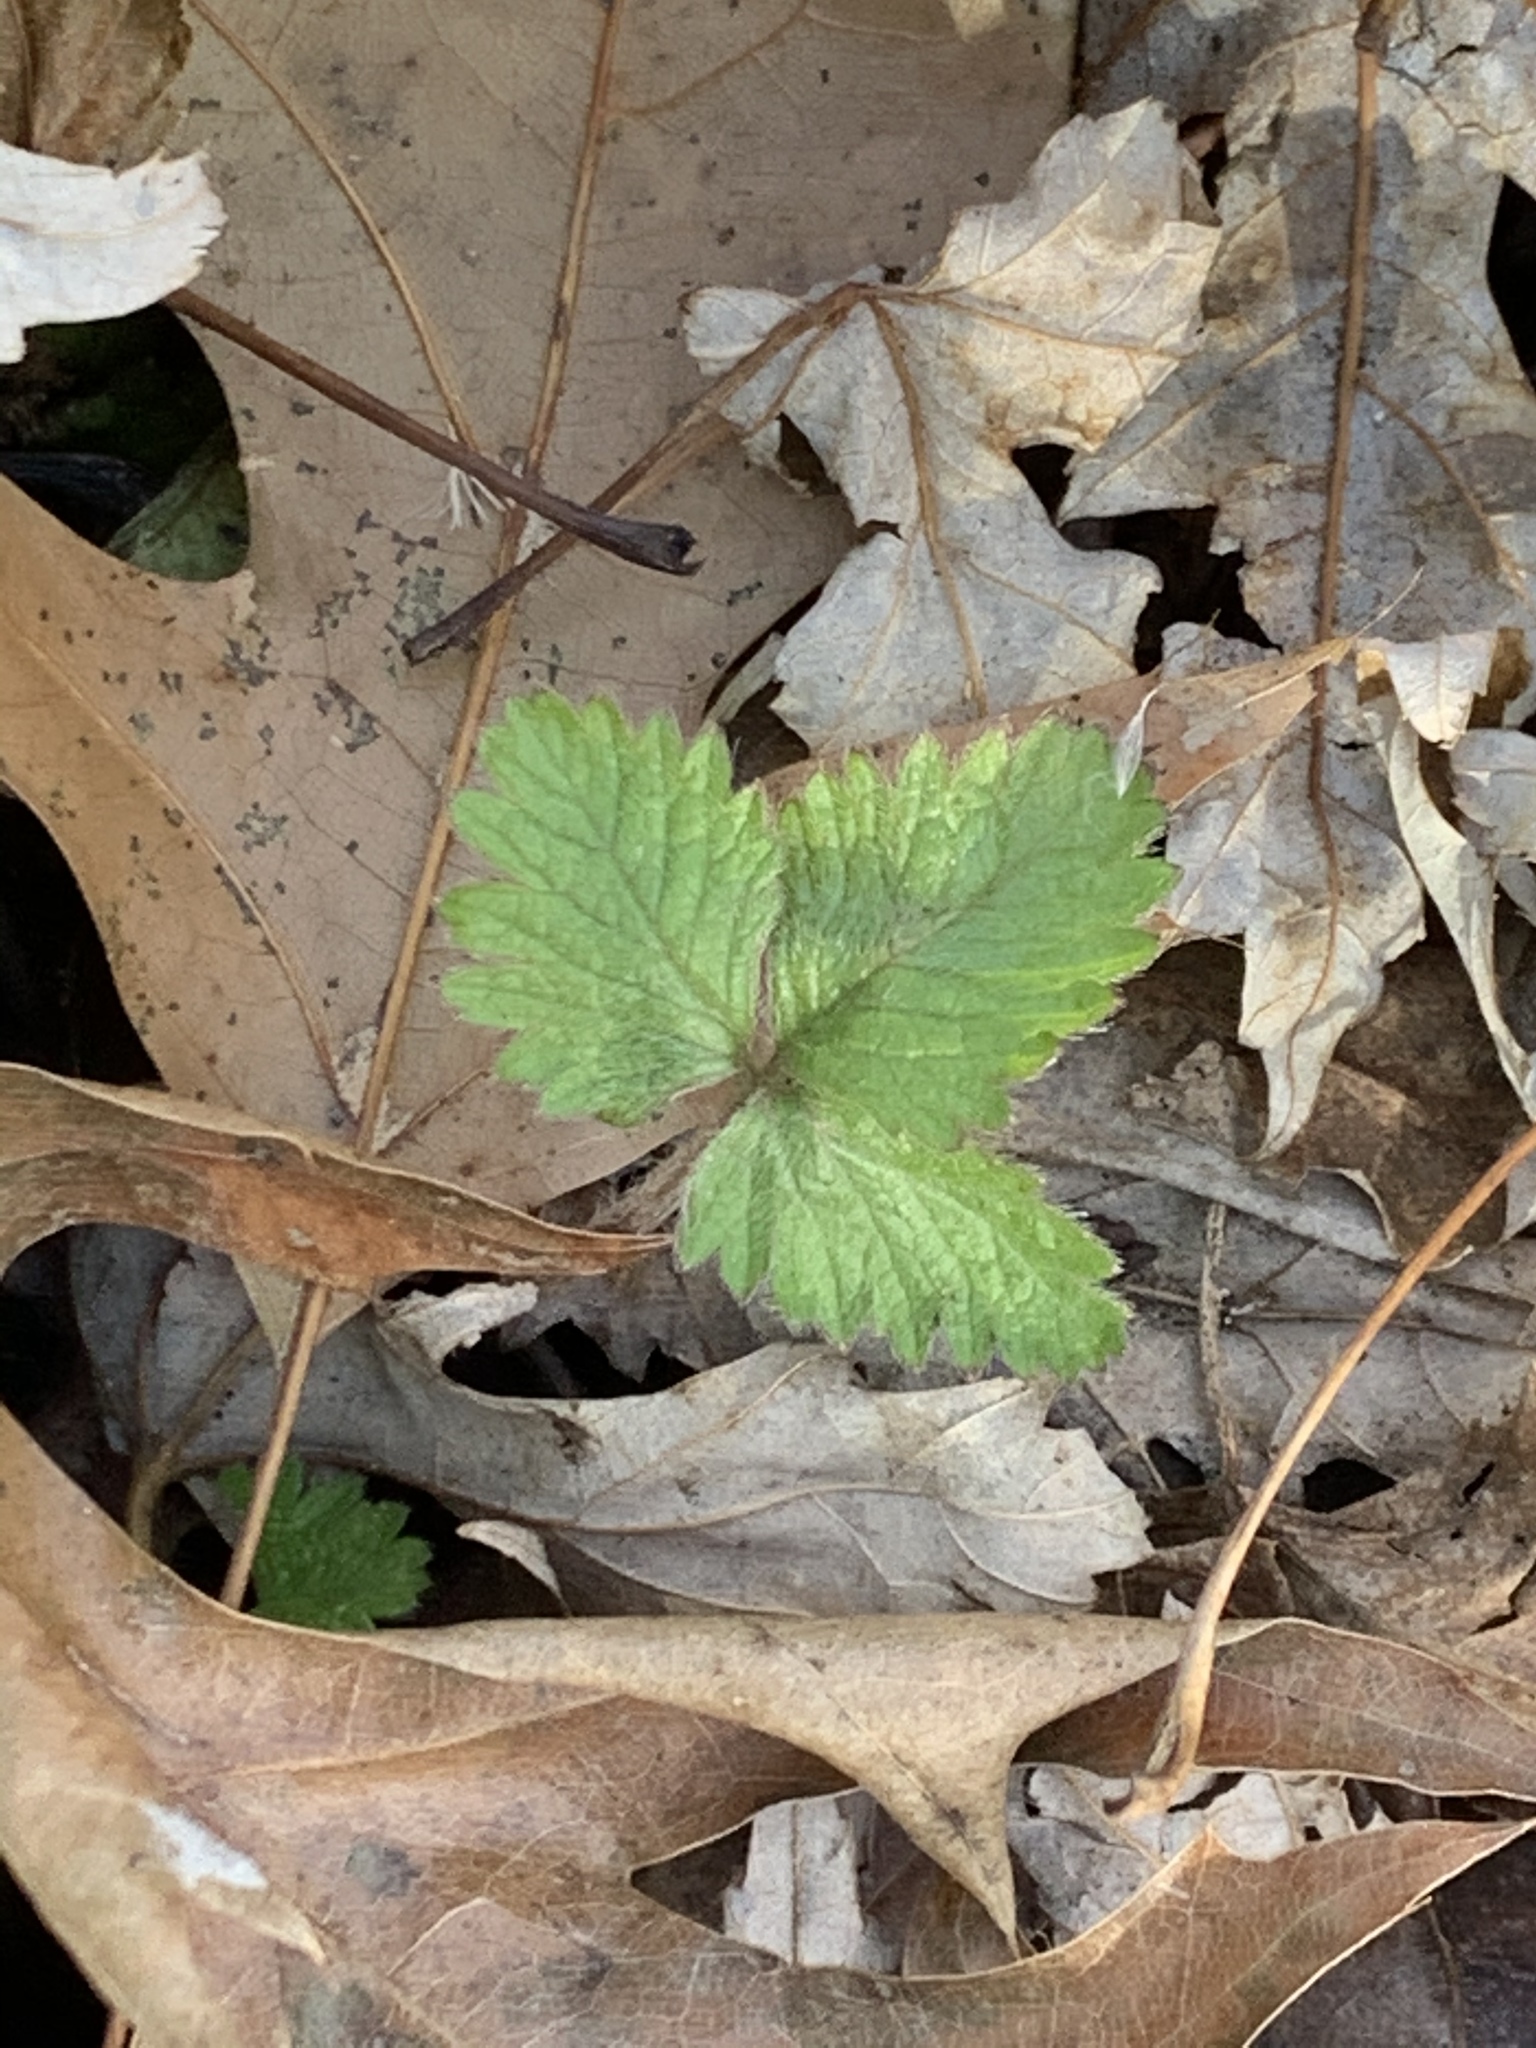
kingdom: Plantae
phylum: Tracheophyta
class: Magnoliopsida
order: Rosales
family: Rosaceae
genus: Potentilla
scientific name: Potentilla indica
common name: Yellow-flowered strawberry
